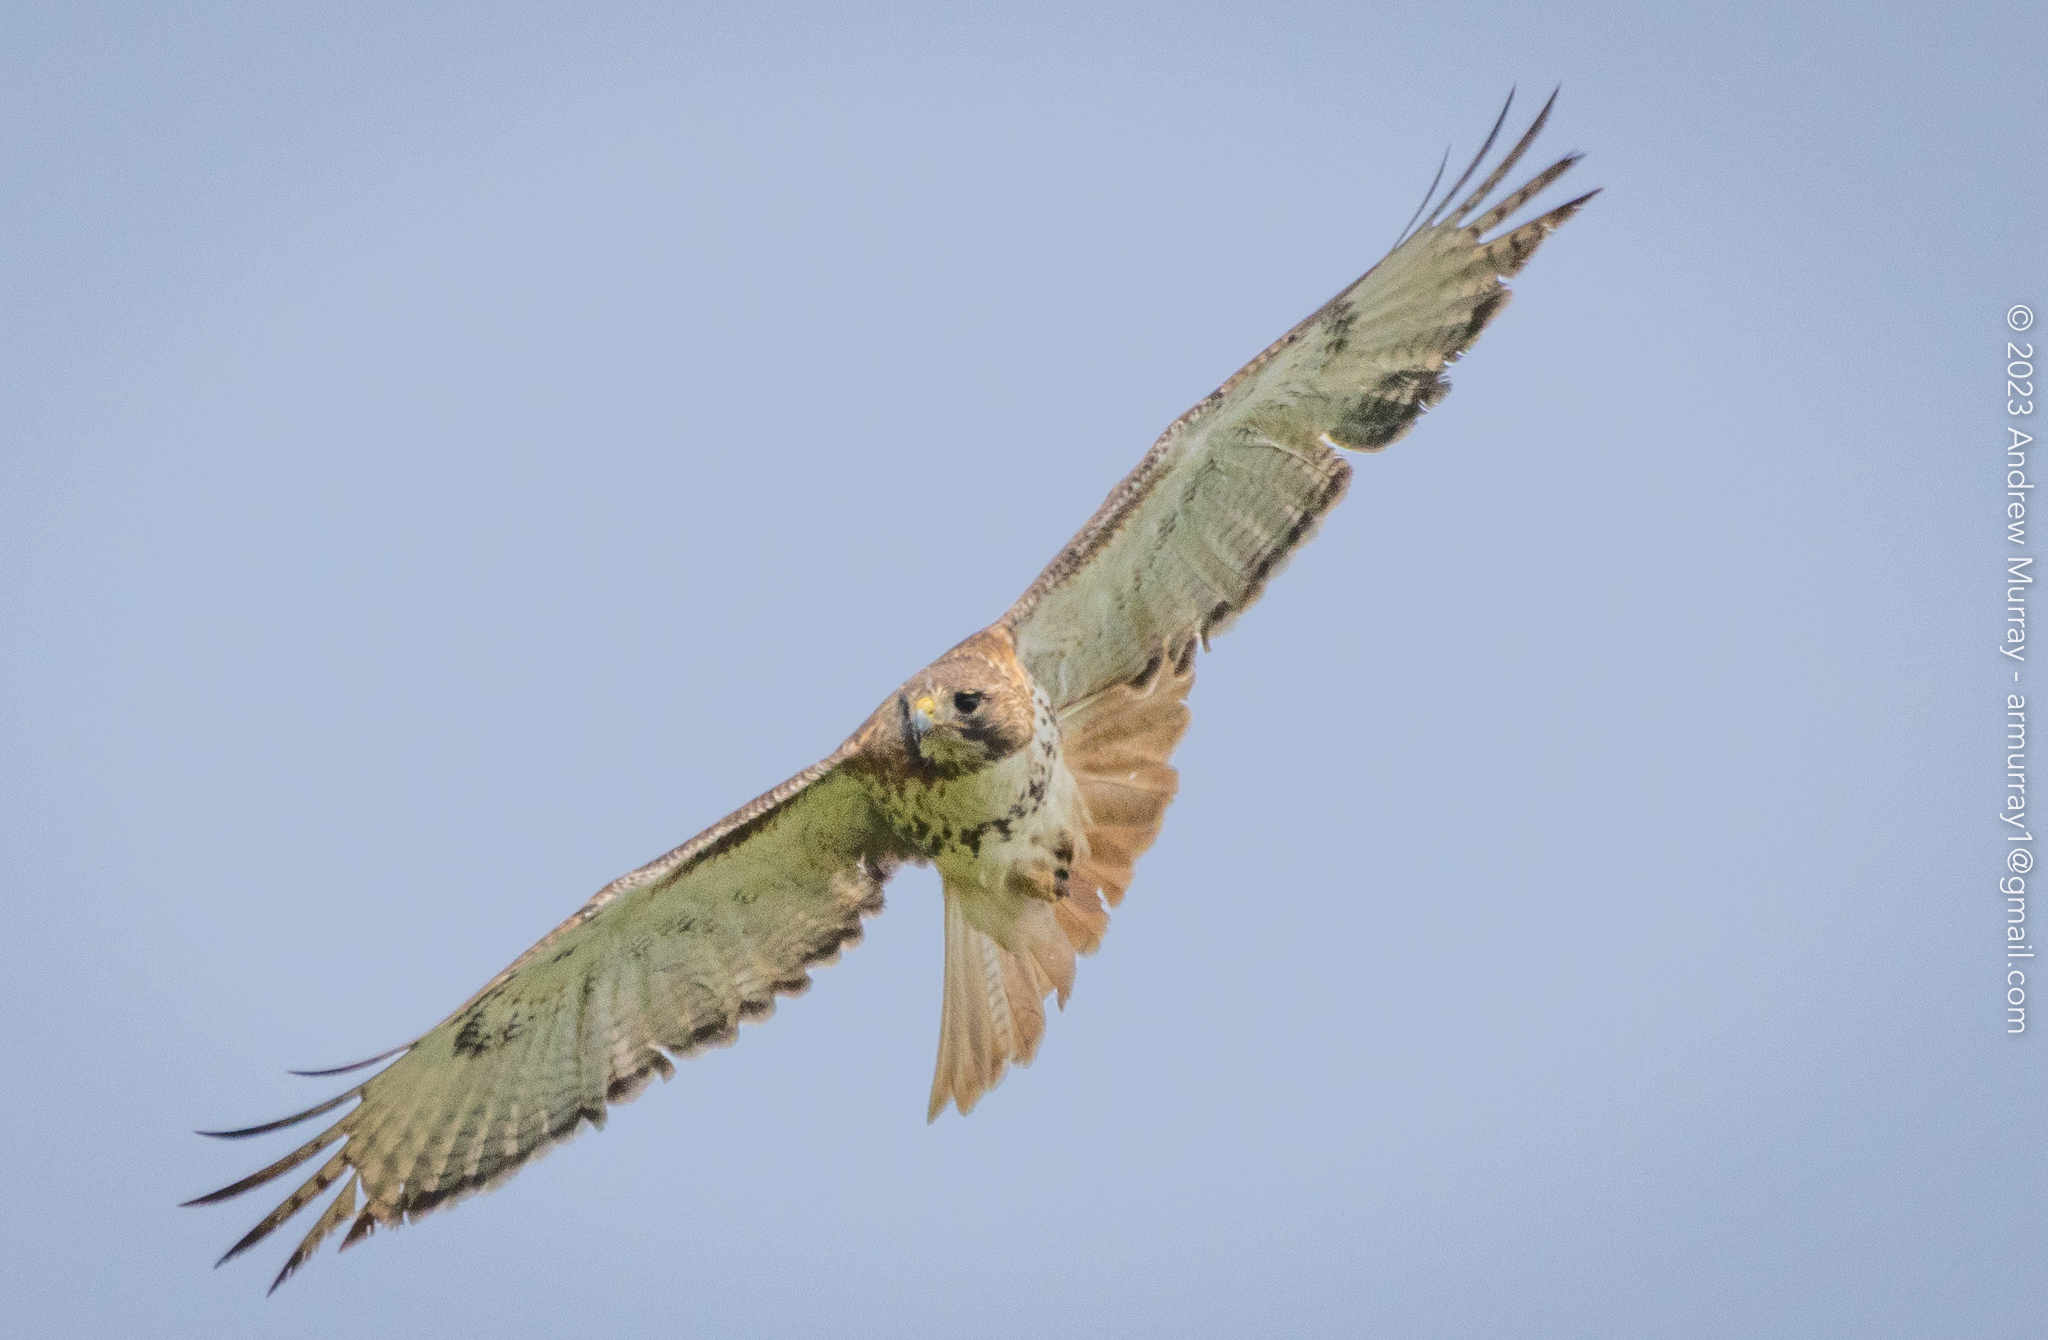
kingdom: Animalia
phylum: Chordata
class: Aves
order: Accipitriformes
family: Accipitridae
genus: Buteo
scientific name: Buteo jamaicensis
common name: Red-tailed hawk
